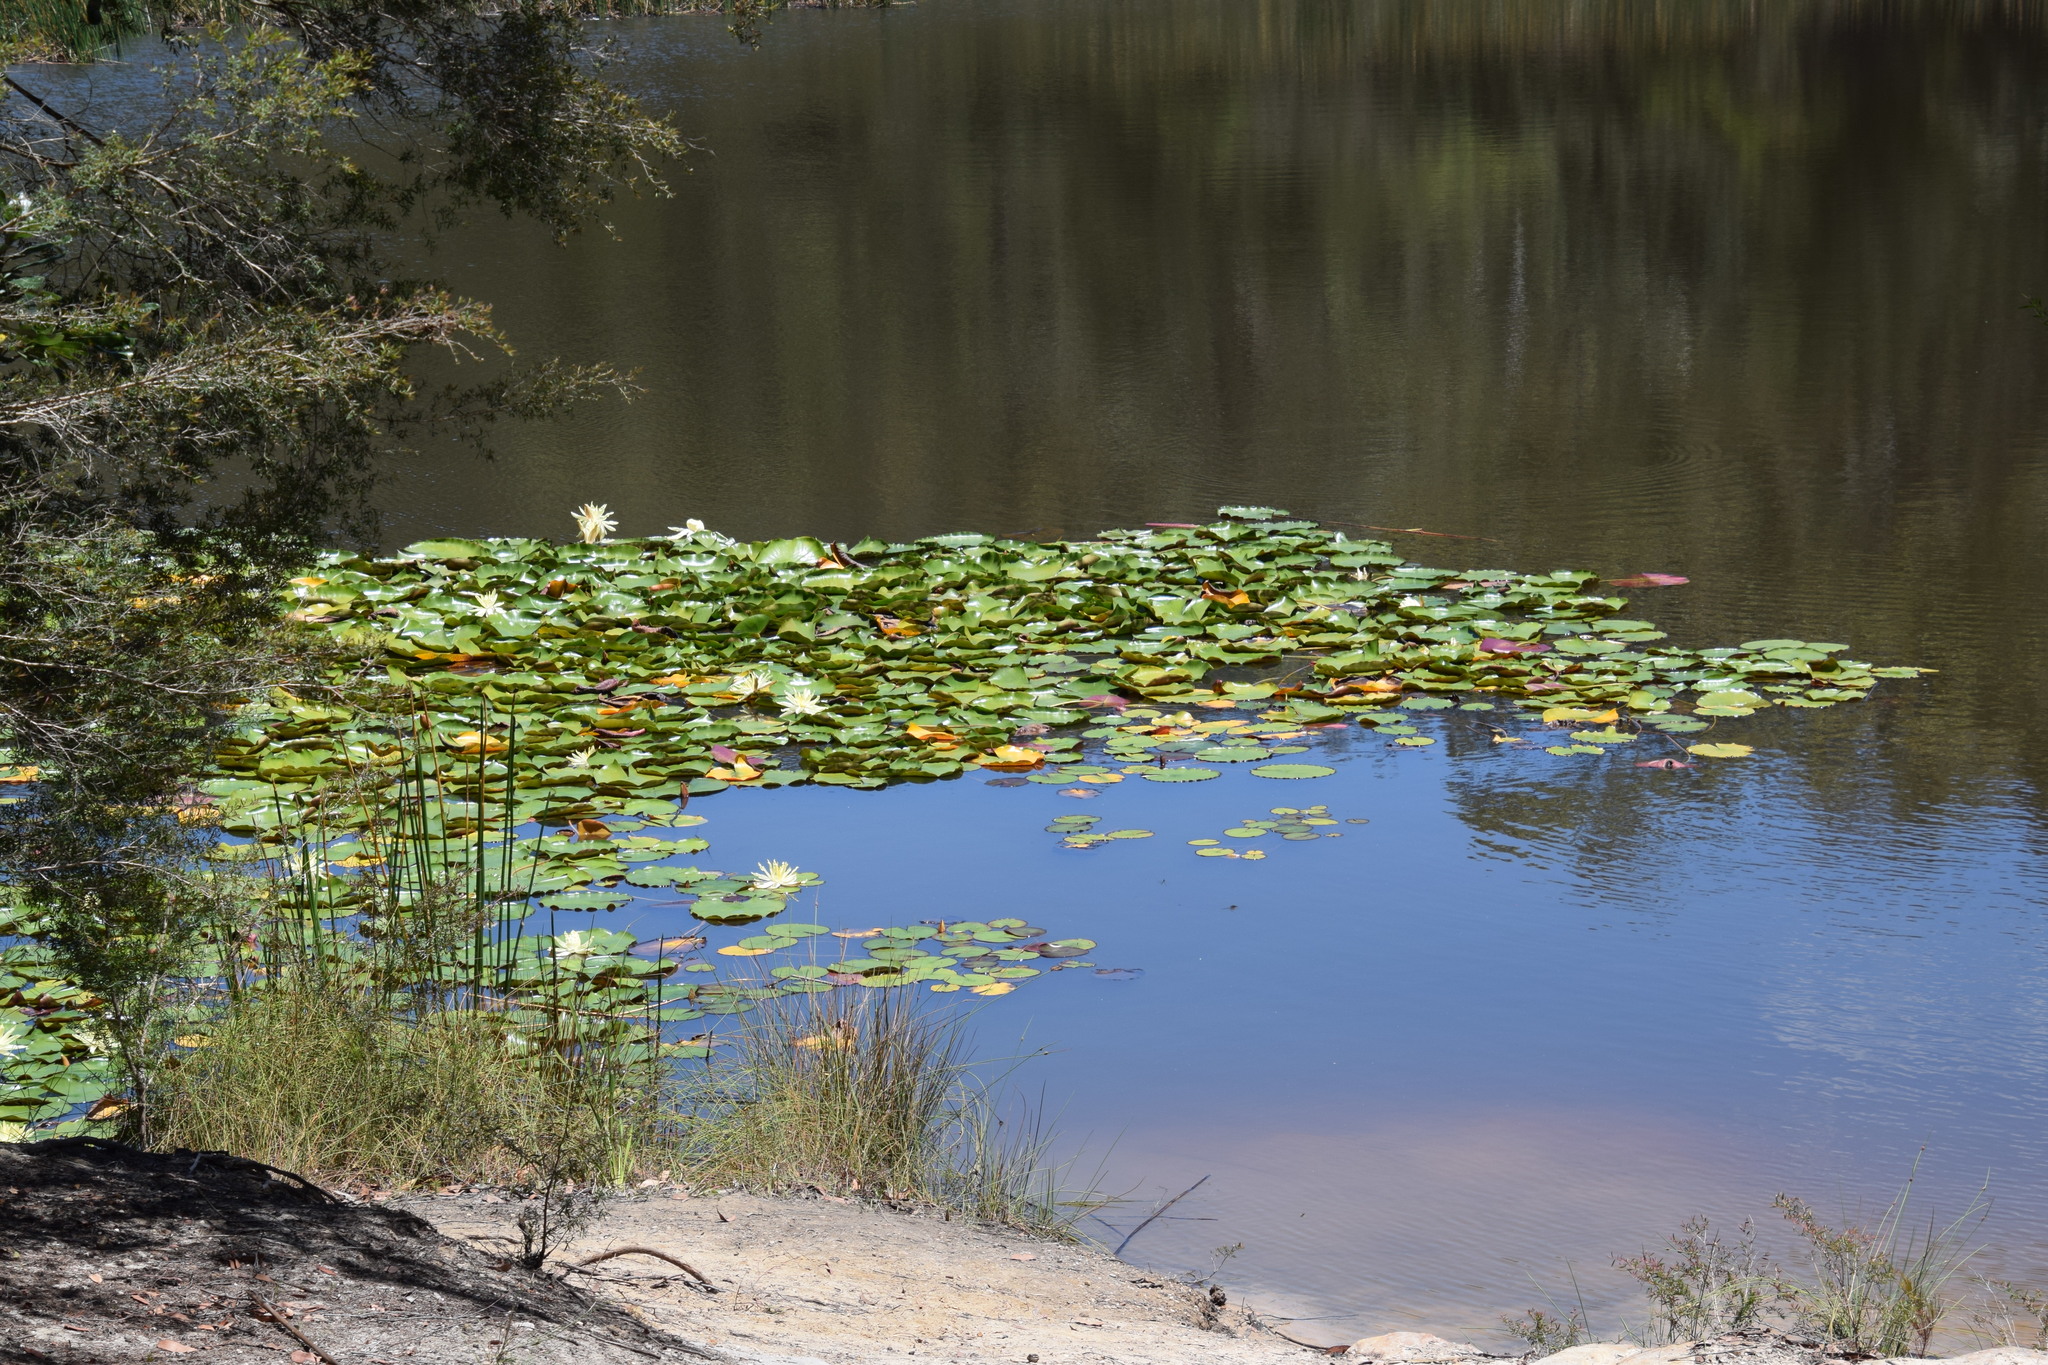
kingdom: Plantae
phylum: Tracheophyta
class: Magnoliopsida
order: Nymphaeales
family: Nymphaeaceae
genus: Nymphaea
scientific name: Nymphaea mexicana
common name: Banana water-lily
